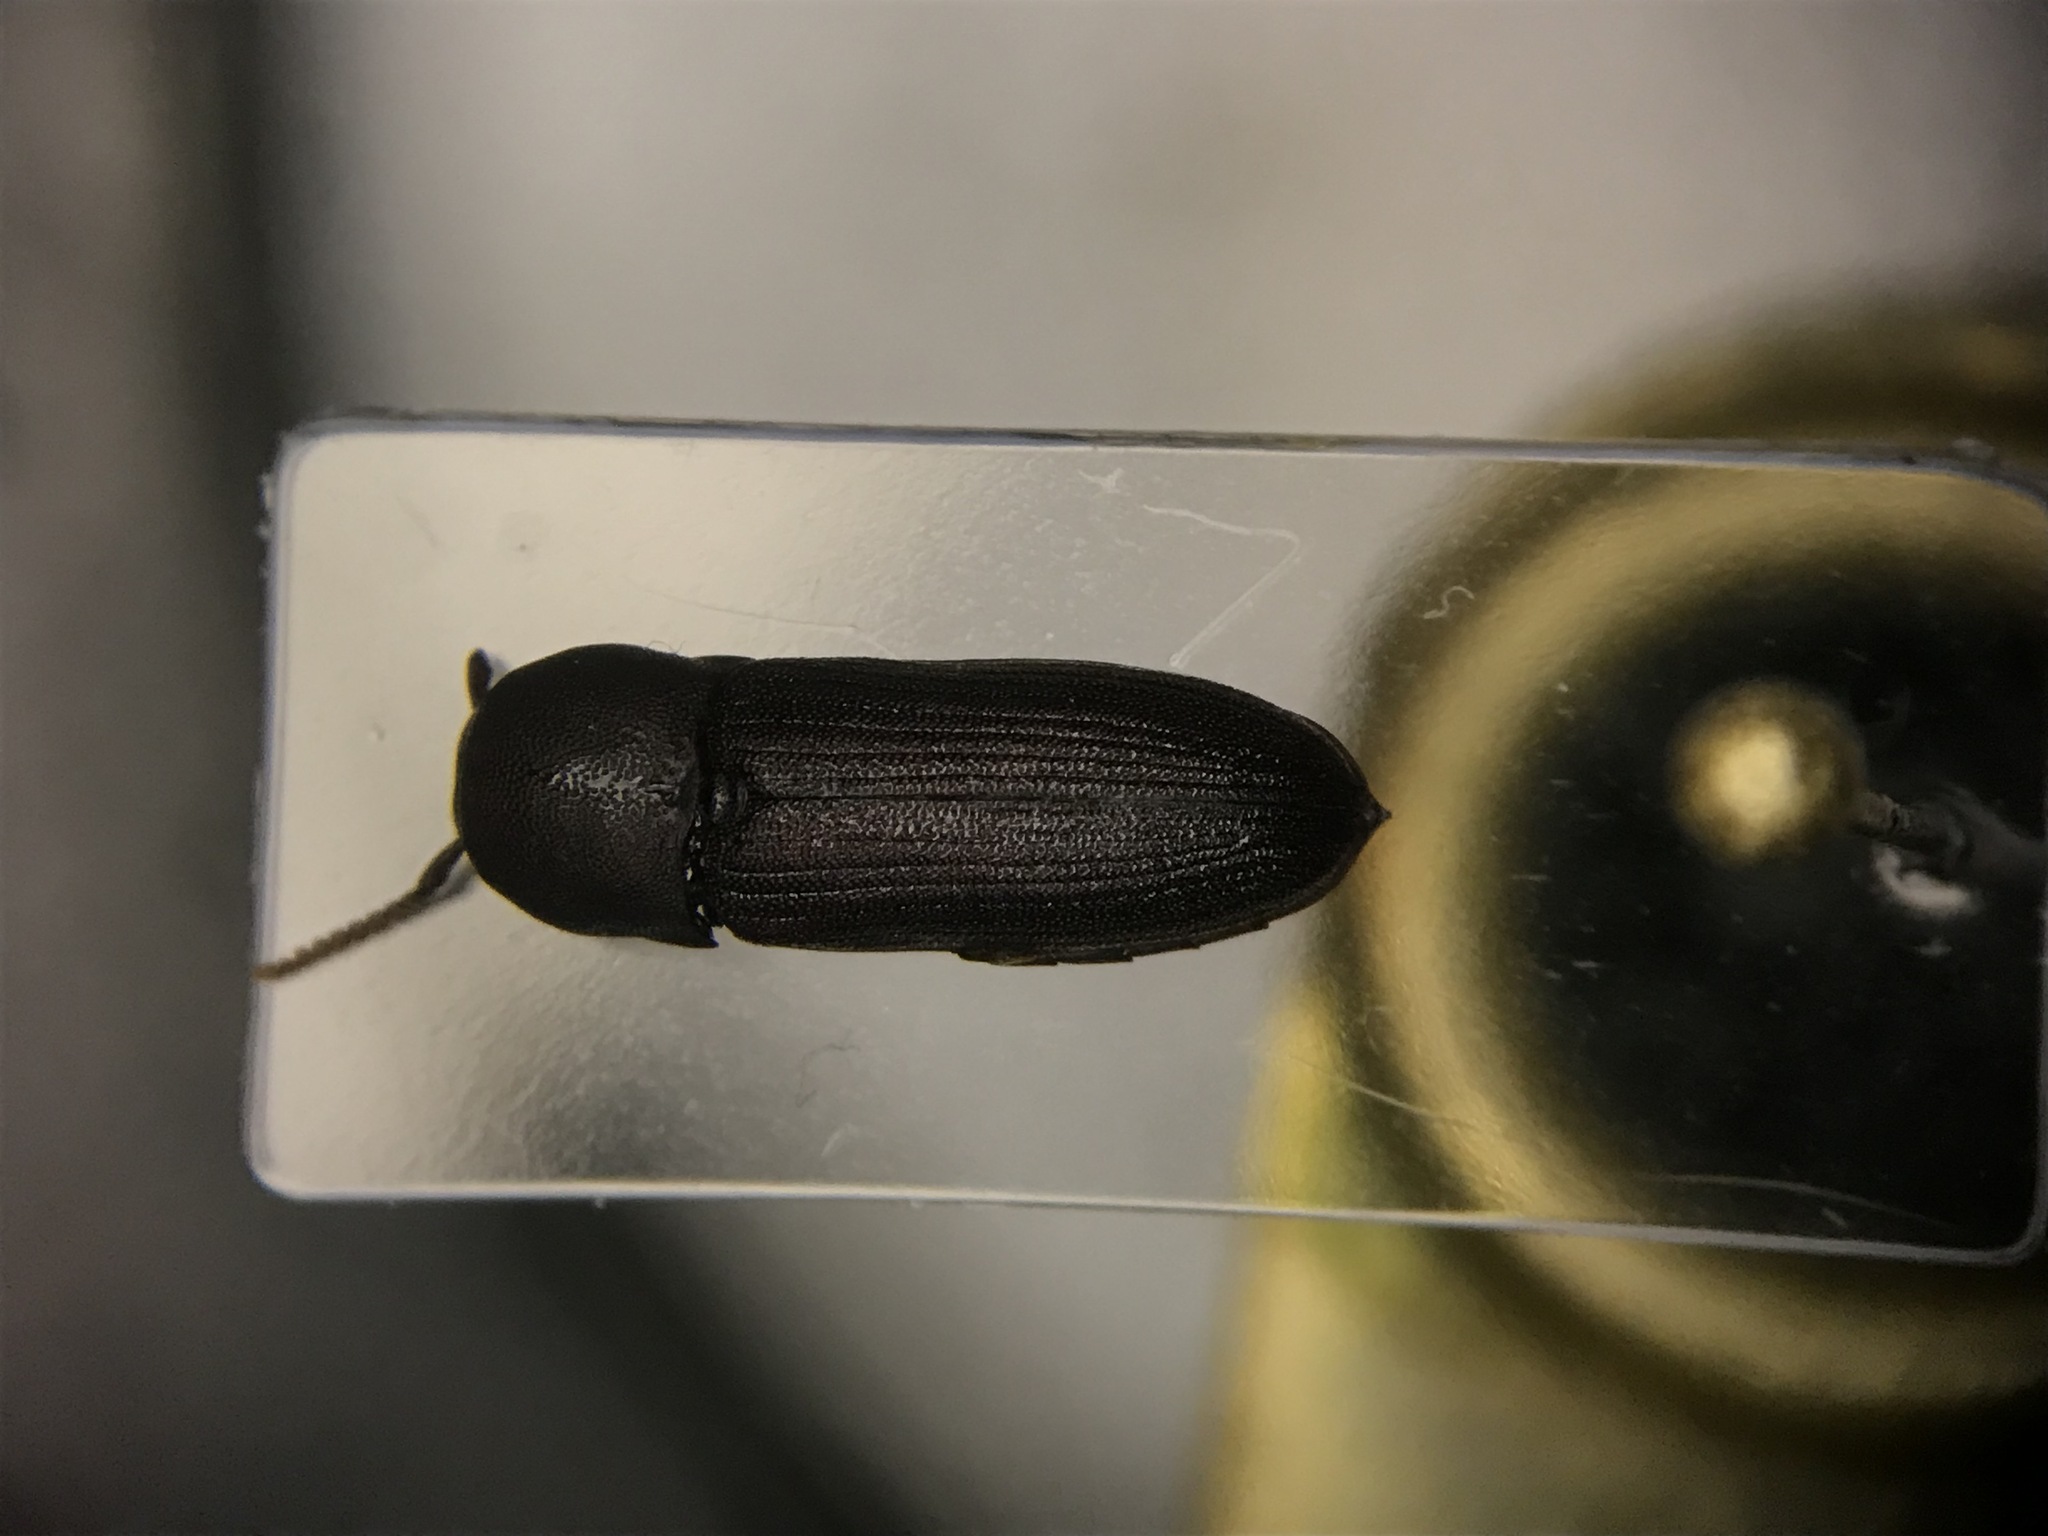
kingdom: Animalia
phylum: Arthropoda
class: Insecta
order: Coleoptera
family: Eucnemidae
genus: Stethon
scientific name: Stethon pectorosus
